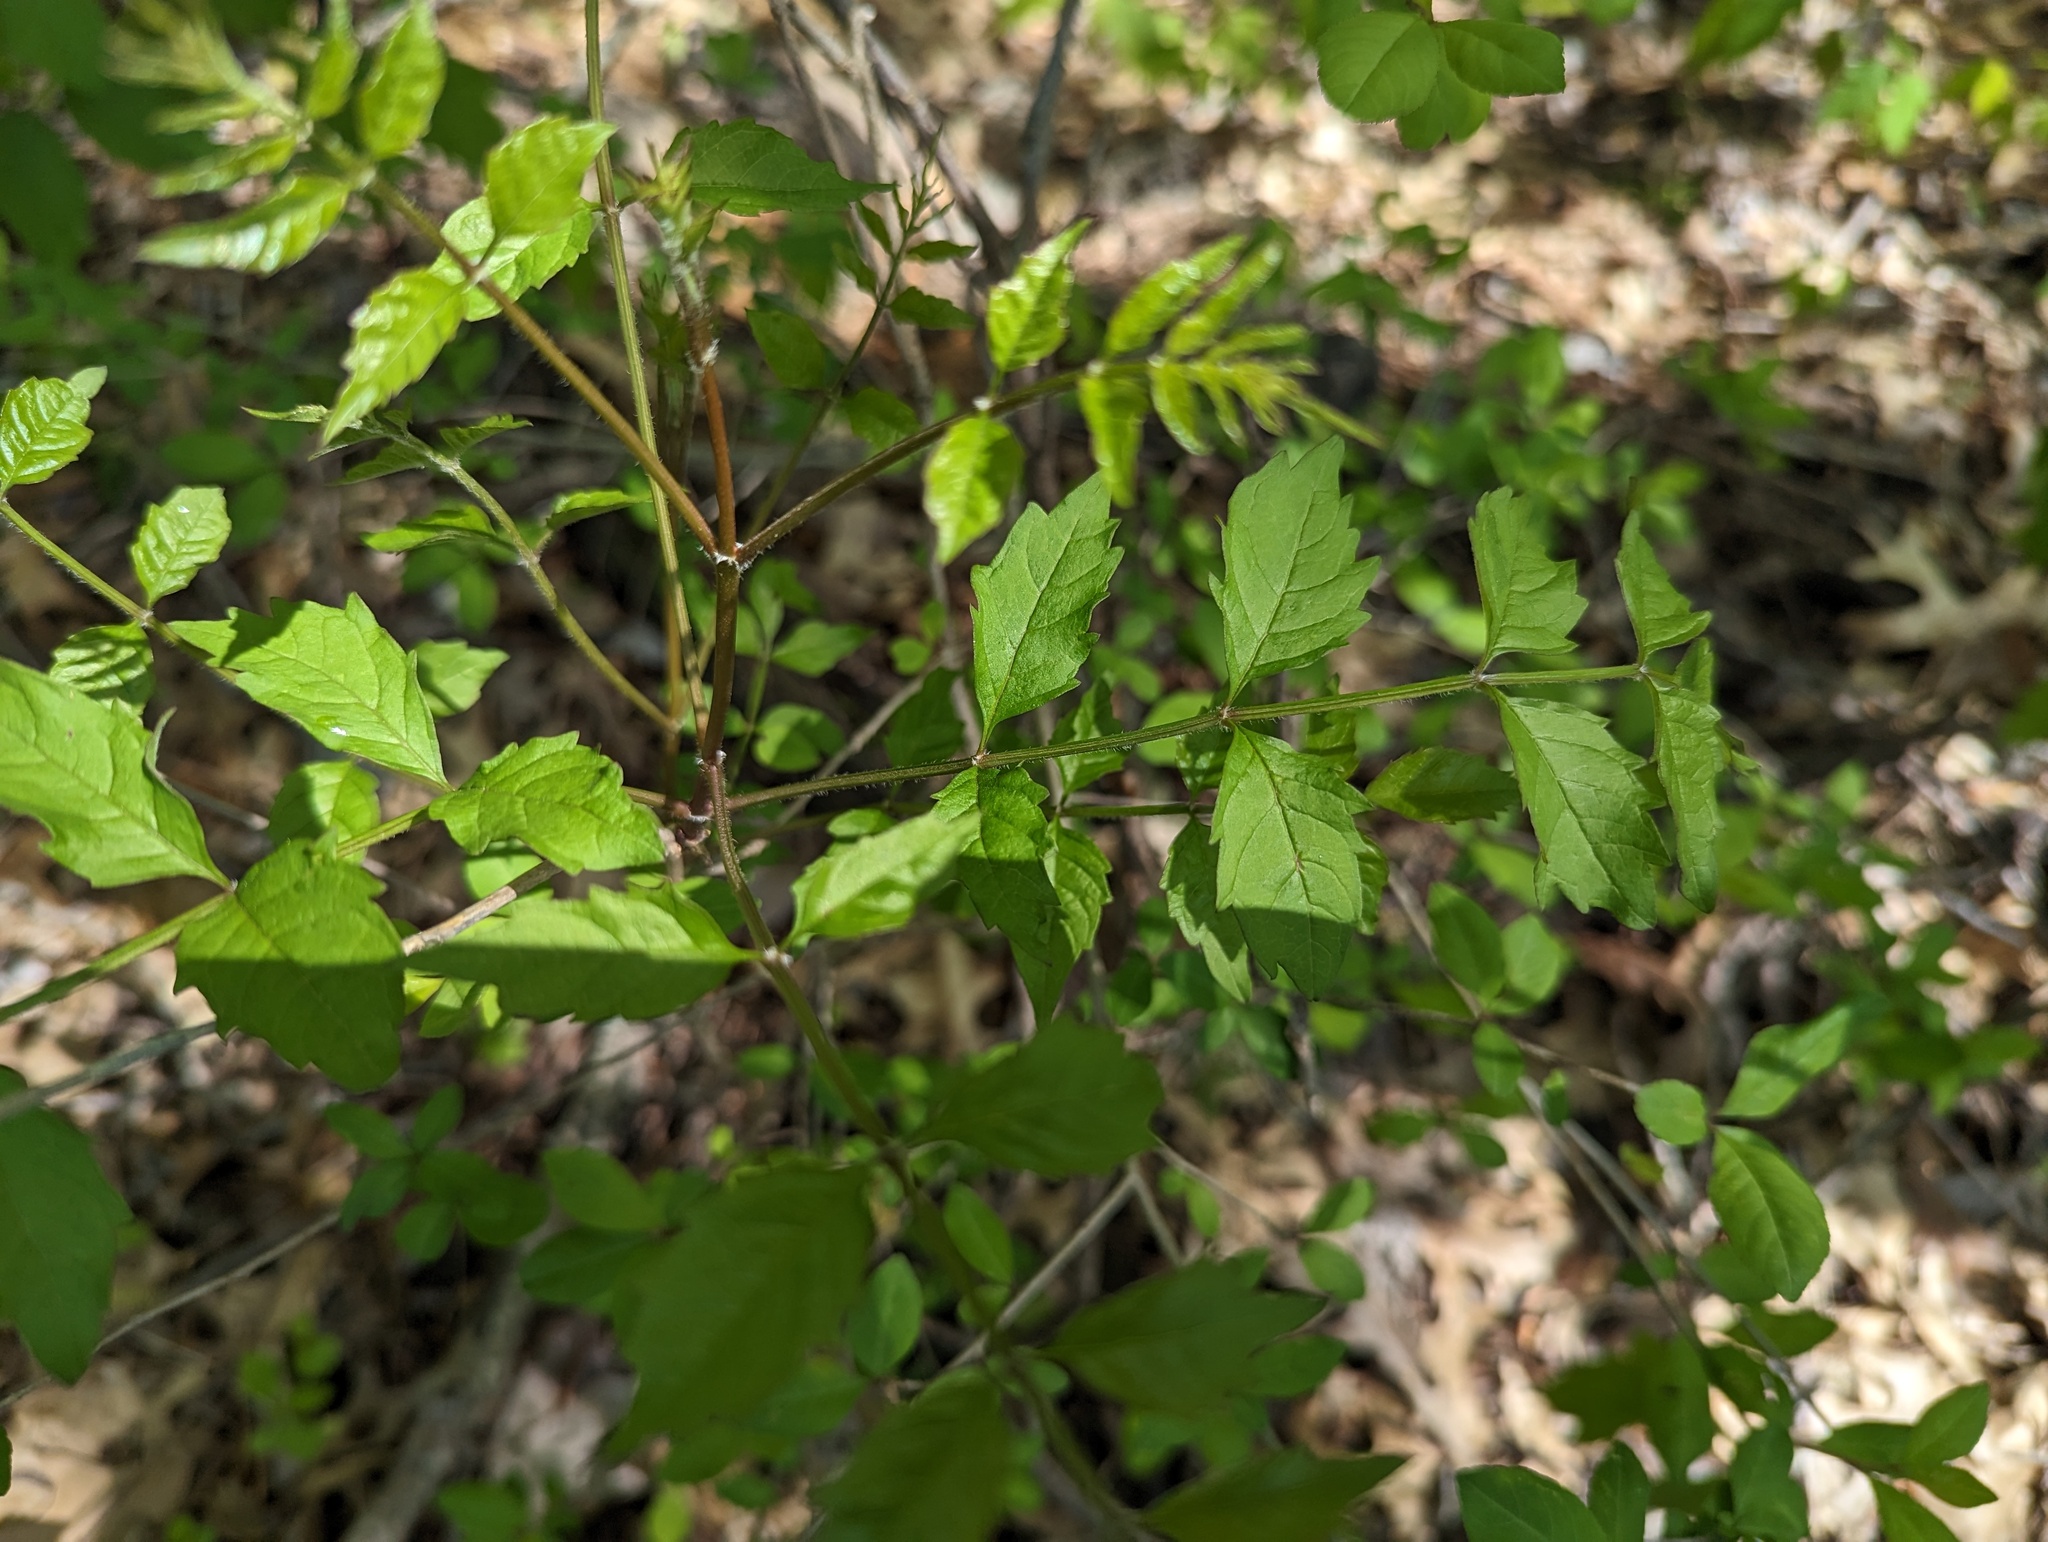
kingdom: Plantae
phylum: Tracheophyta
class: Magnoliopsida
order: Lamiales
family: Bignoniaceae
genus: Campsis
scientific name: Campsis radicans
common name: Trumpet-creeper
